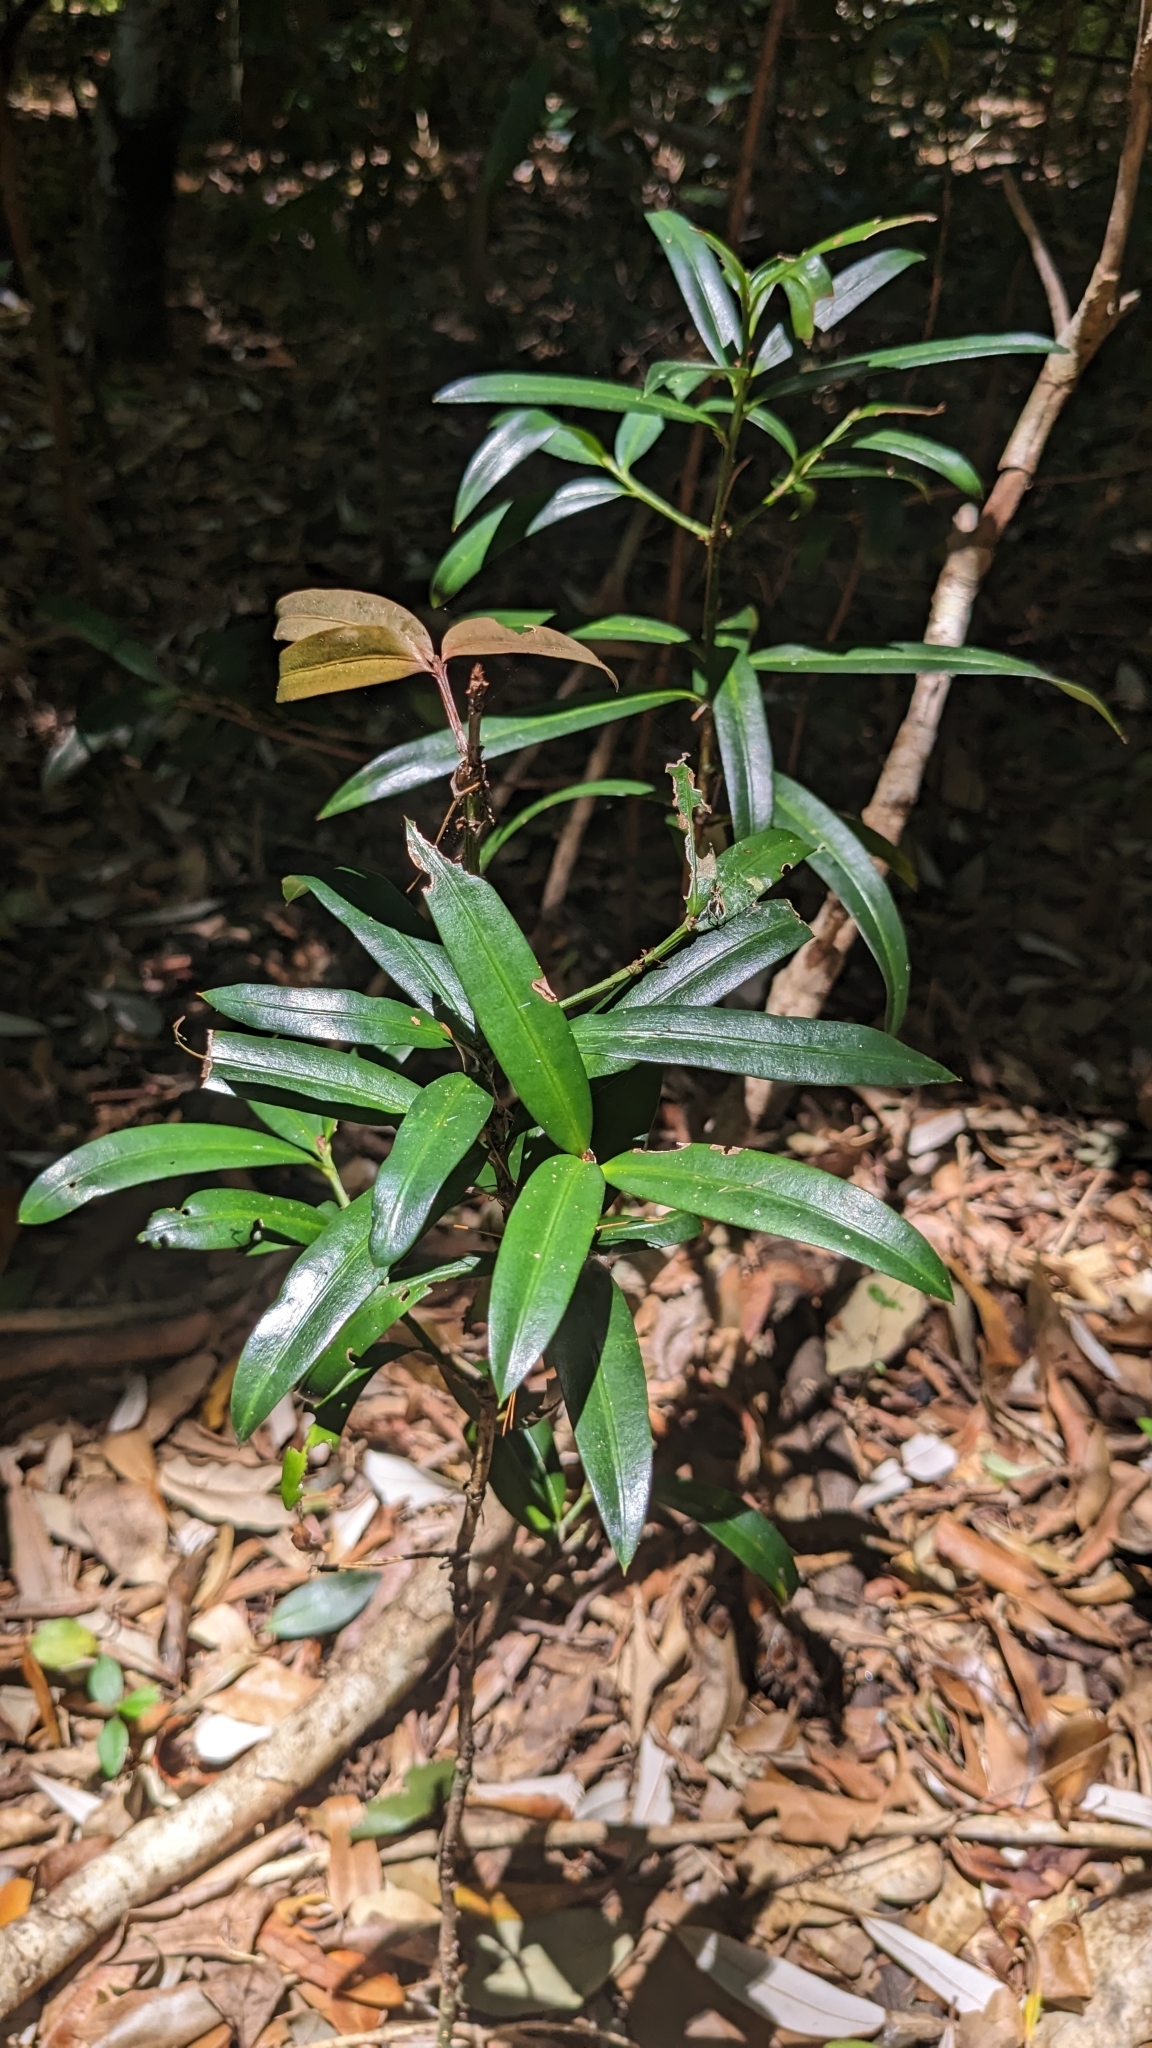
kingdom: Plantae
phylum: Tracheophyta
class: Pinopsida
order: Pinales
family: Podocarpaceae
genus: Podocarpus
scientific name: Podocarpus elatus
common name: Plum pine
